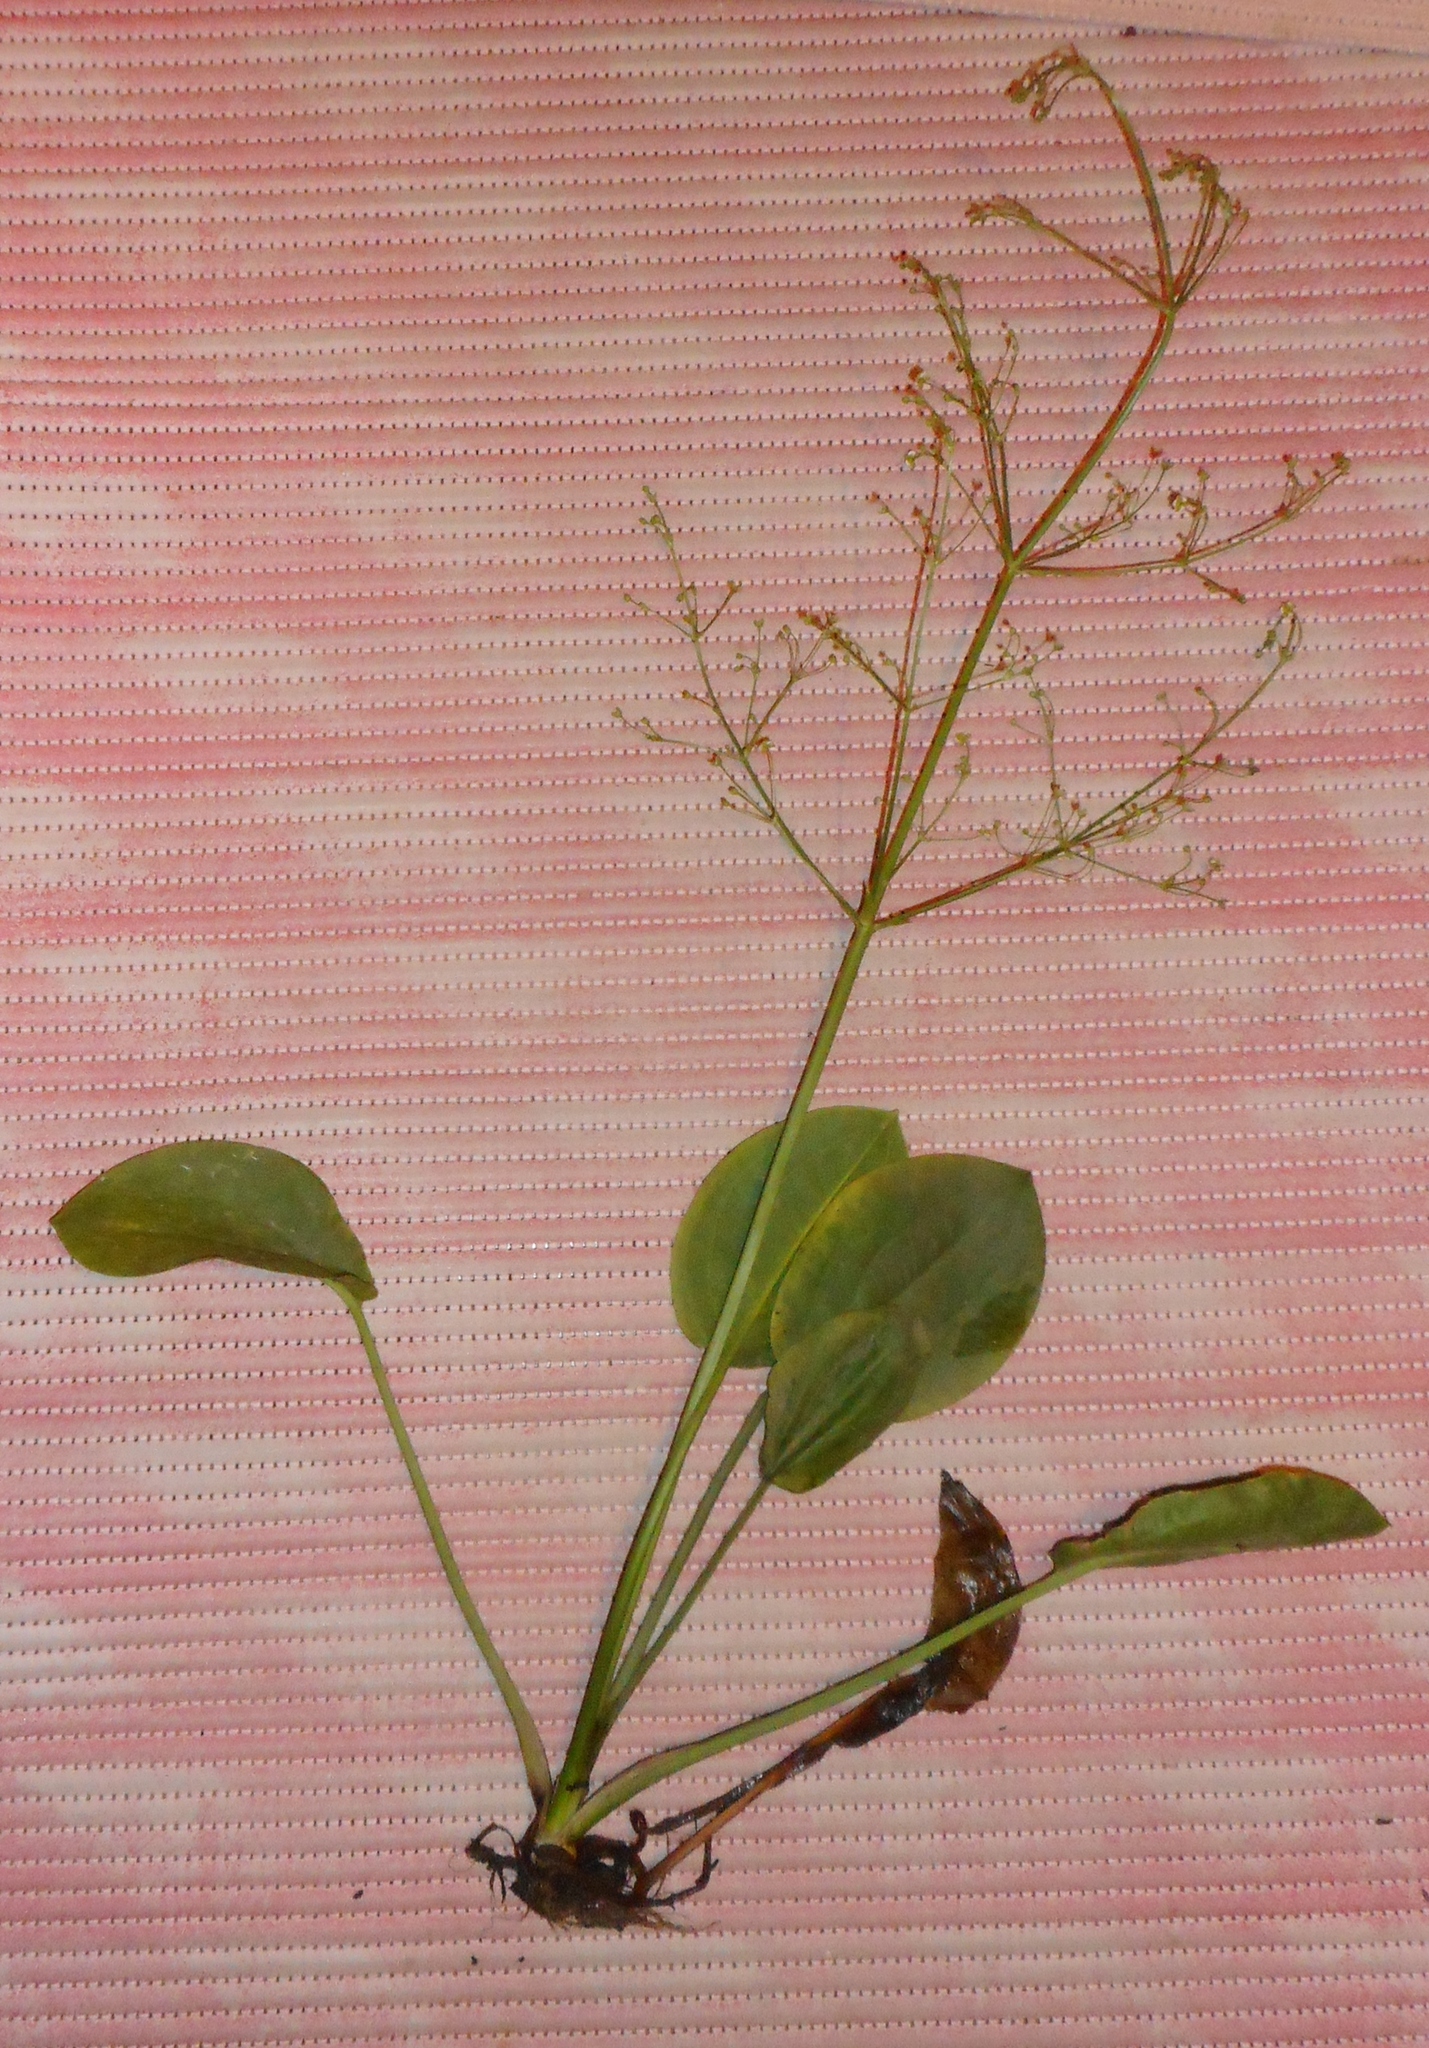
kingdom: Plantae
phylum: Tracheophyta
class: Liliopsida
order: Alismatales
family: Alismataceae
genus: Alisma
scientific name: Alisma plantago-aquatica
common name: Water-plantain
